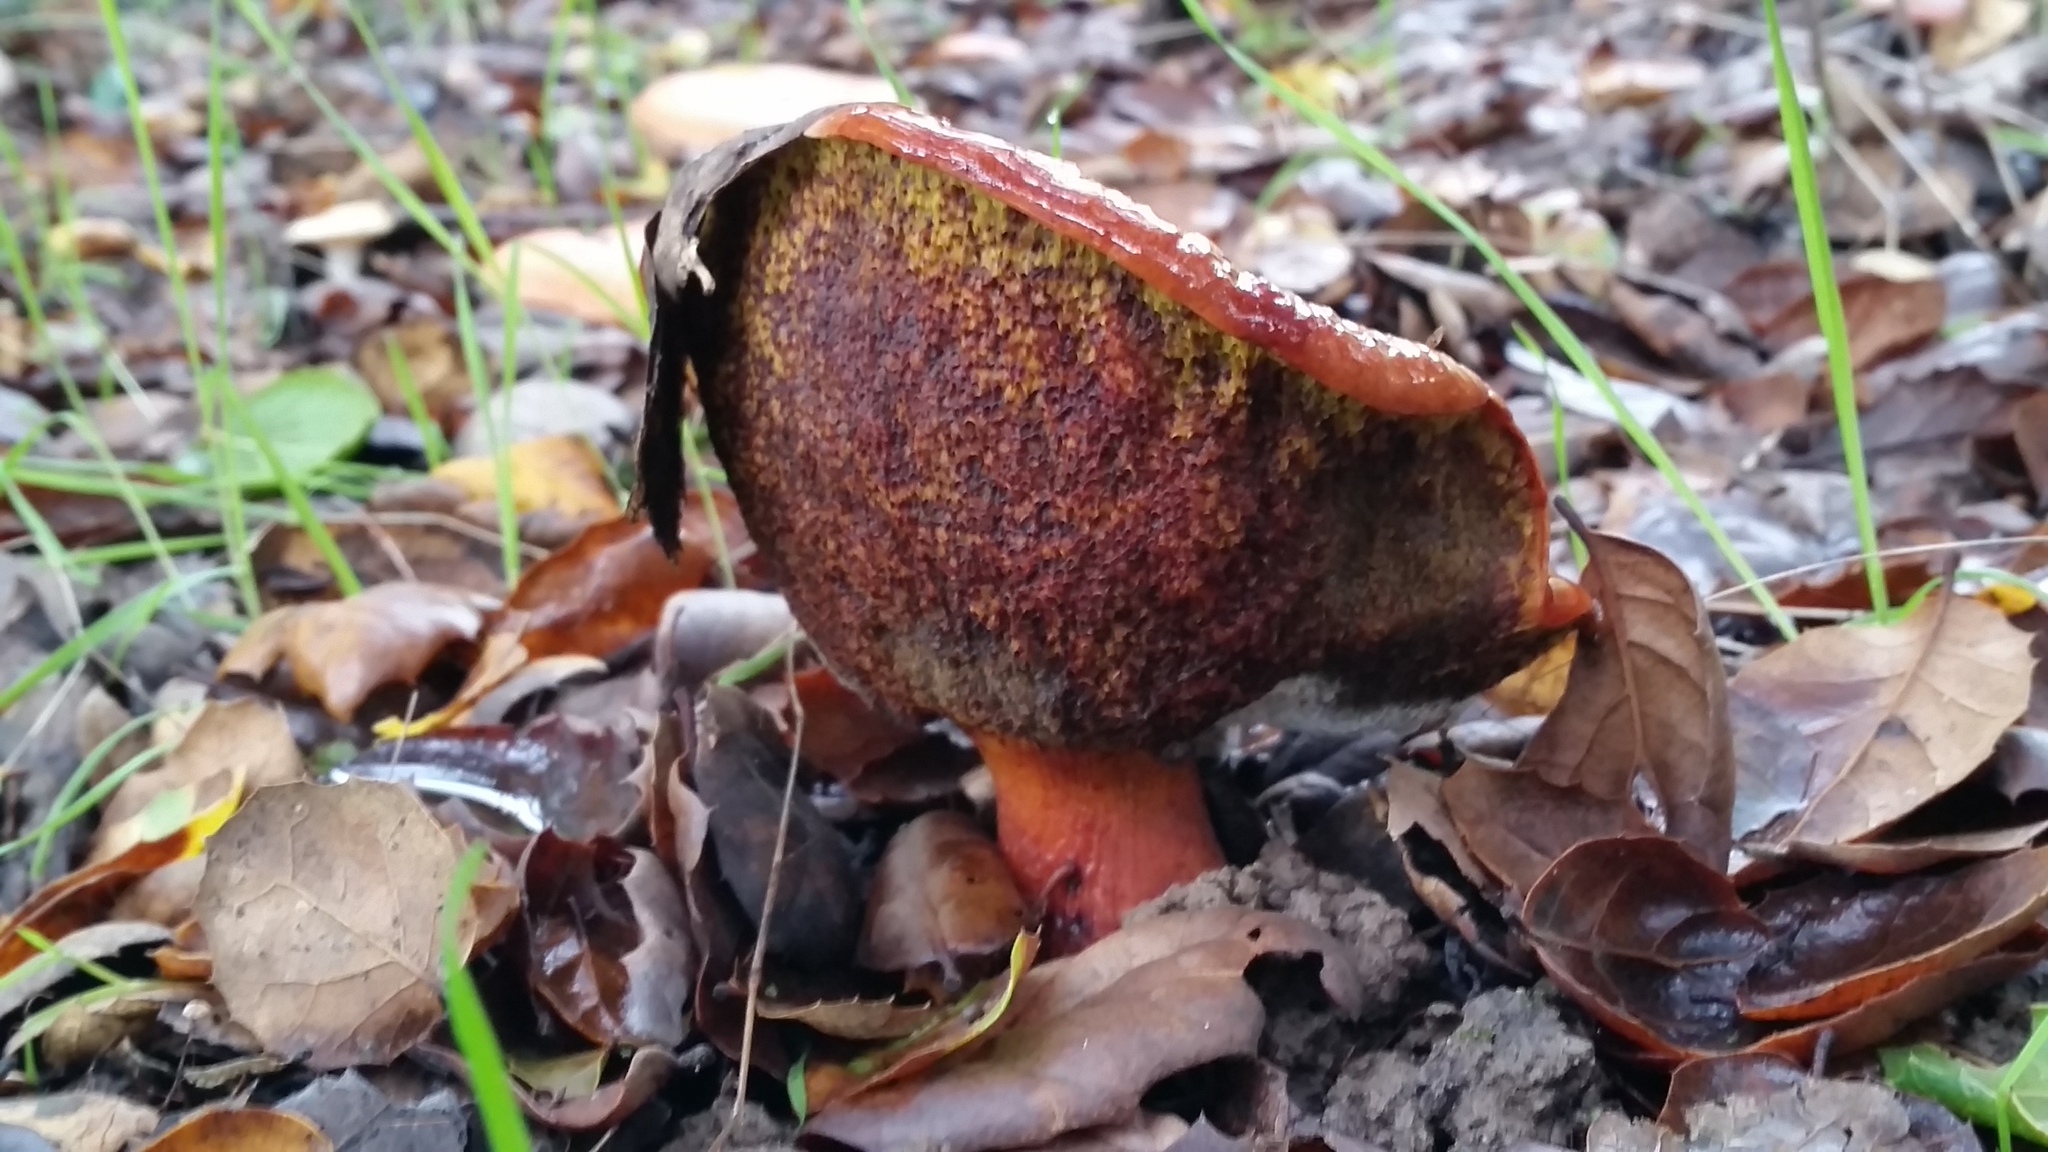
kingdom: Fungi
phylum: Basidiomycota
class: Agaricomycetes
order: Boletales
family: Boletaceae
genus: Xerocomellus
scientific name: Xerocomellus dryophilus
